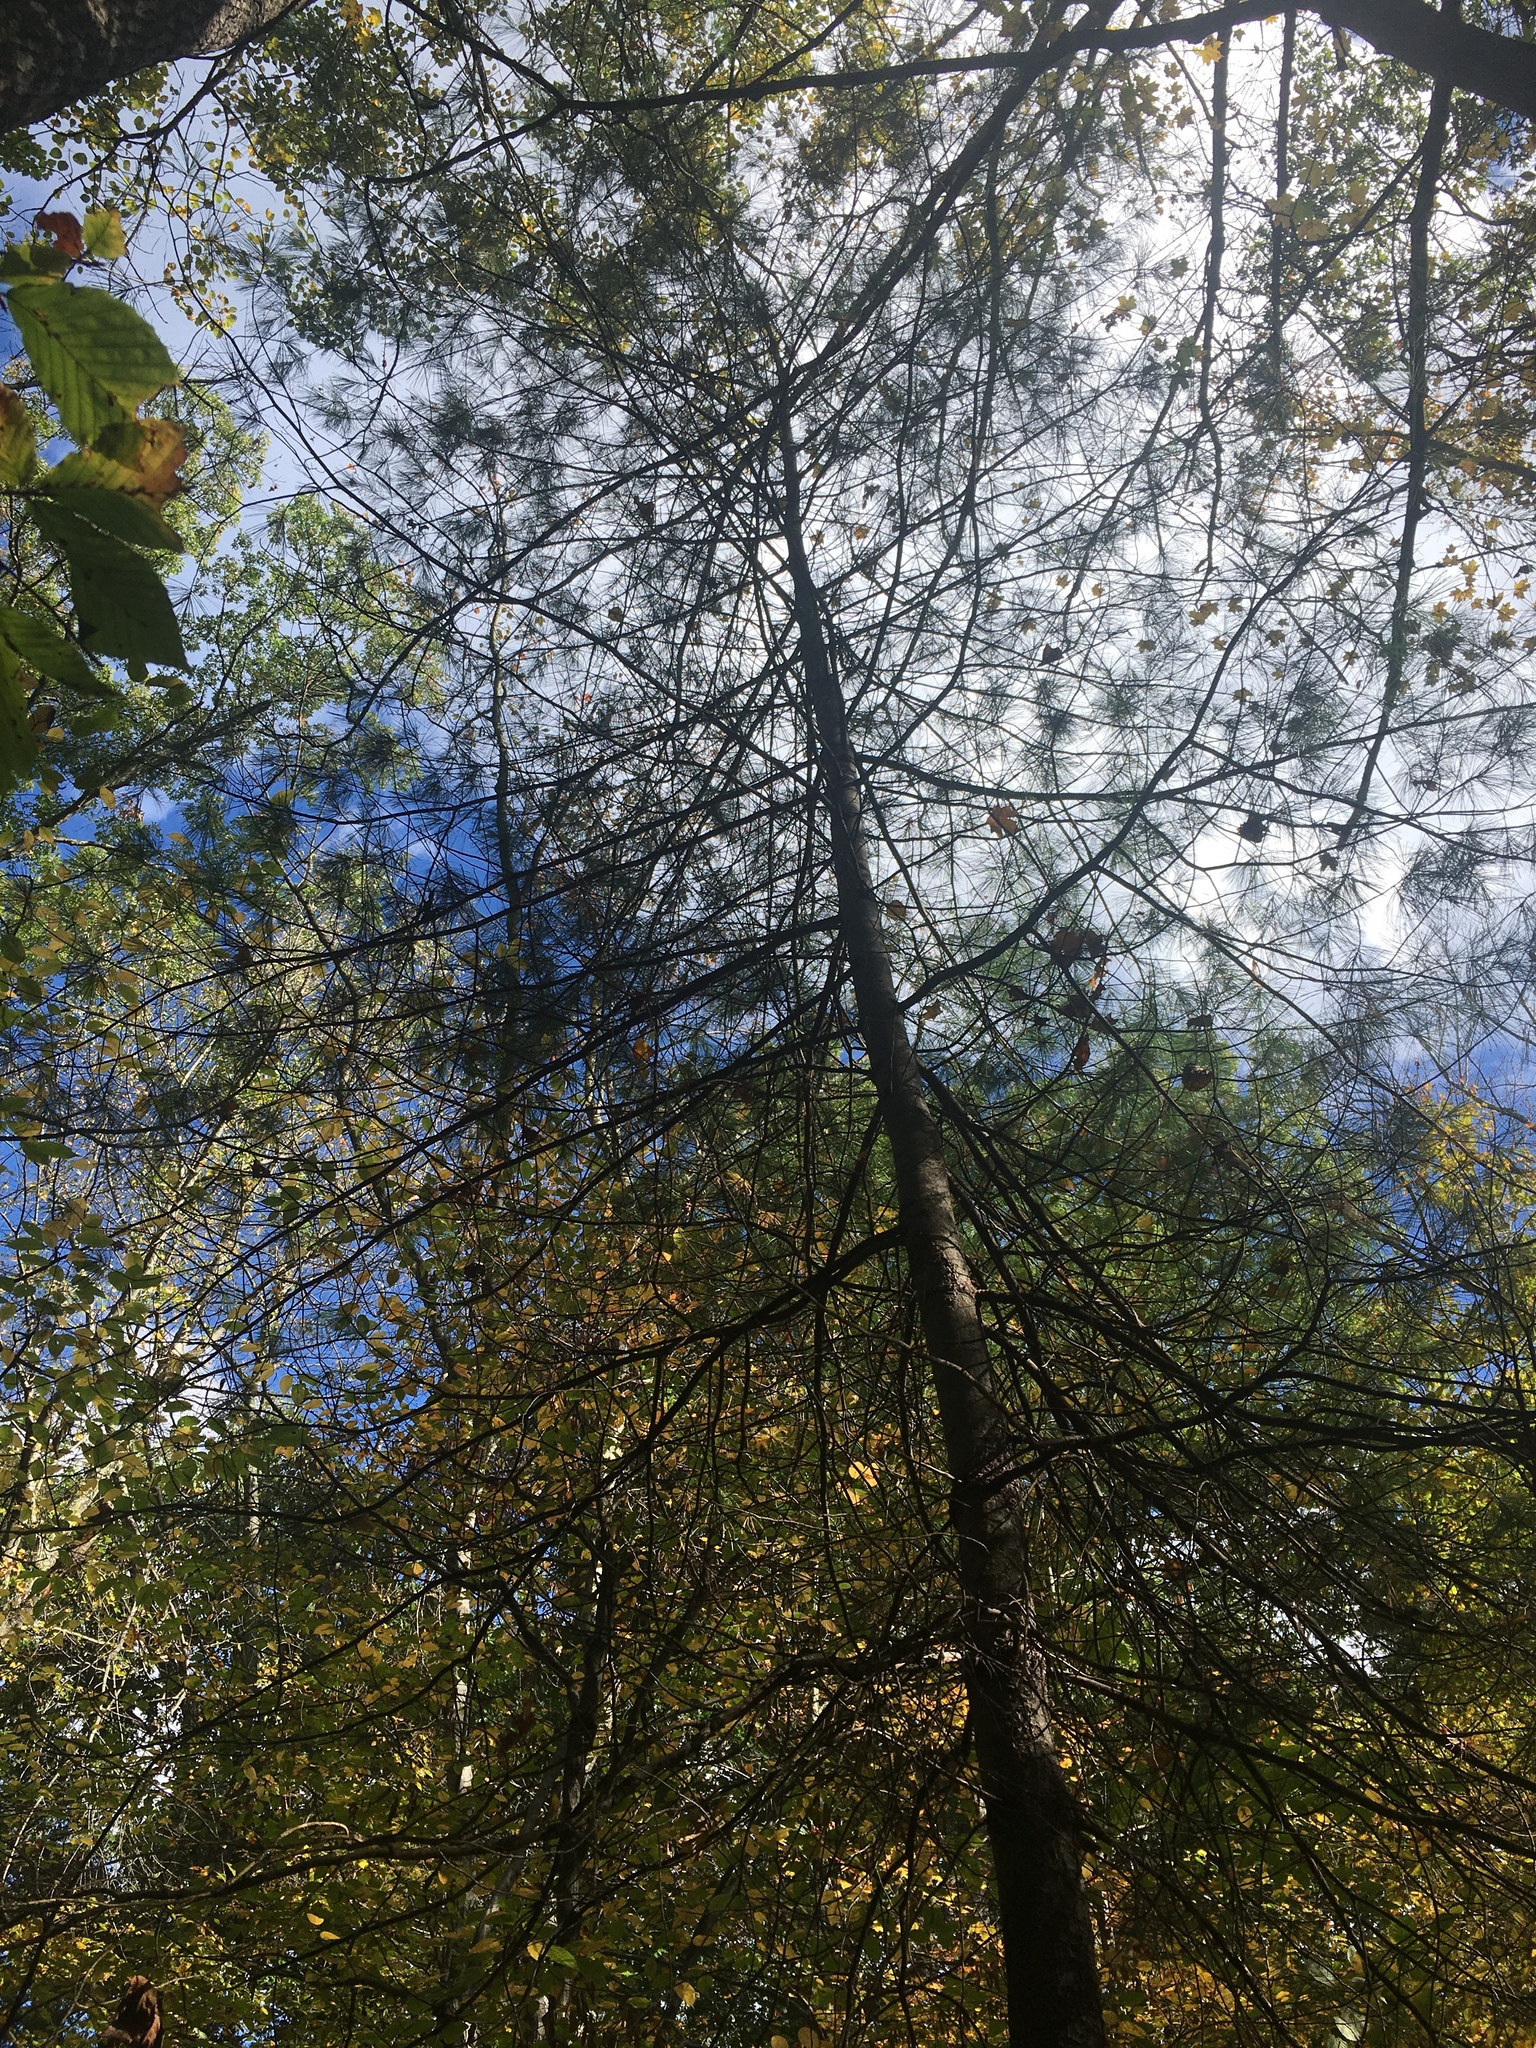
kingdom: Plantae
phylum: Tracheophyta
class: Pinopsida
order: Pinales
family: Pinaceae
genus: Pinus
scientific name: Pinus strobus
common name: Weymouth pine
